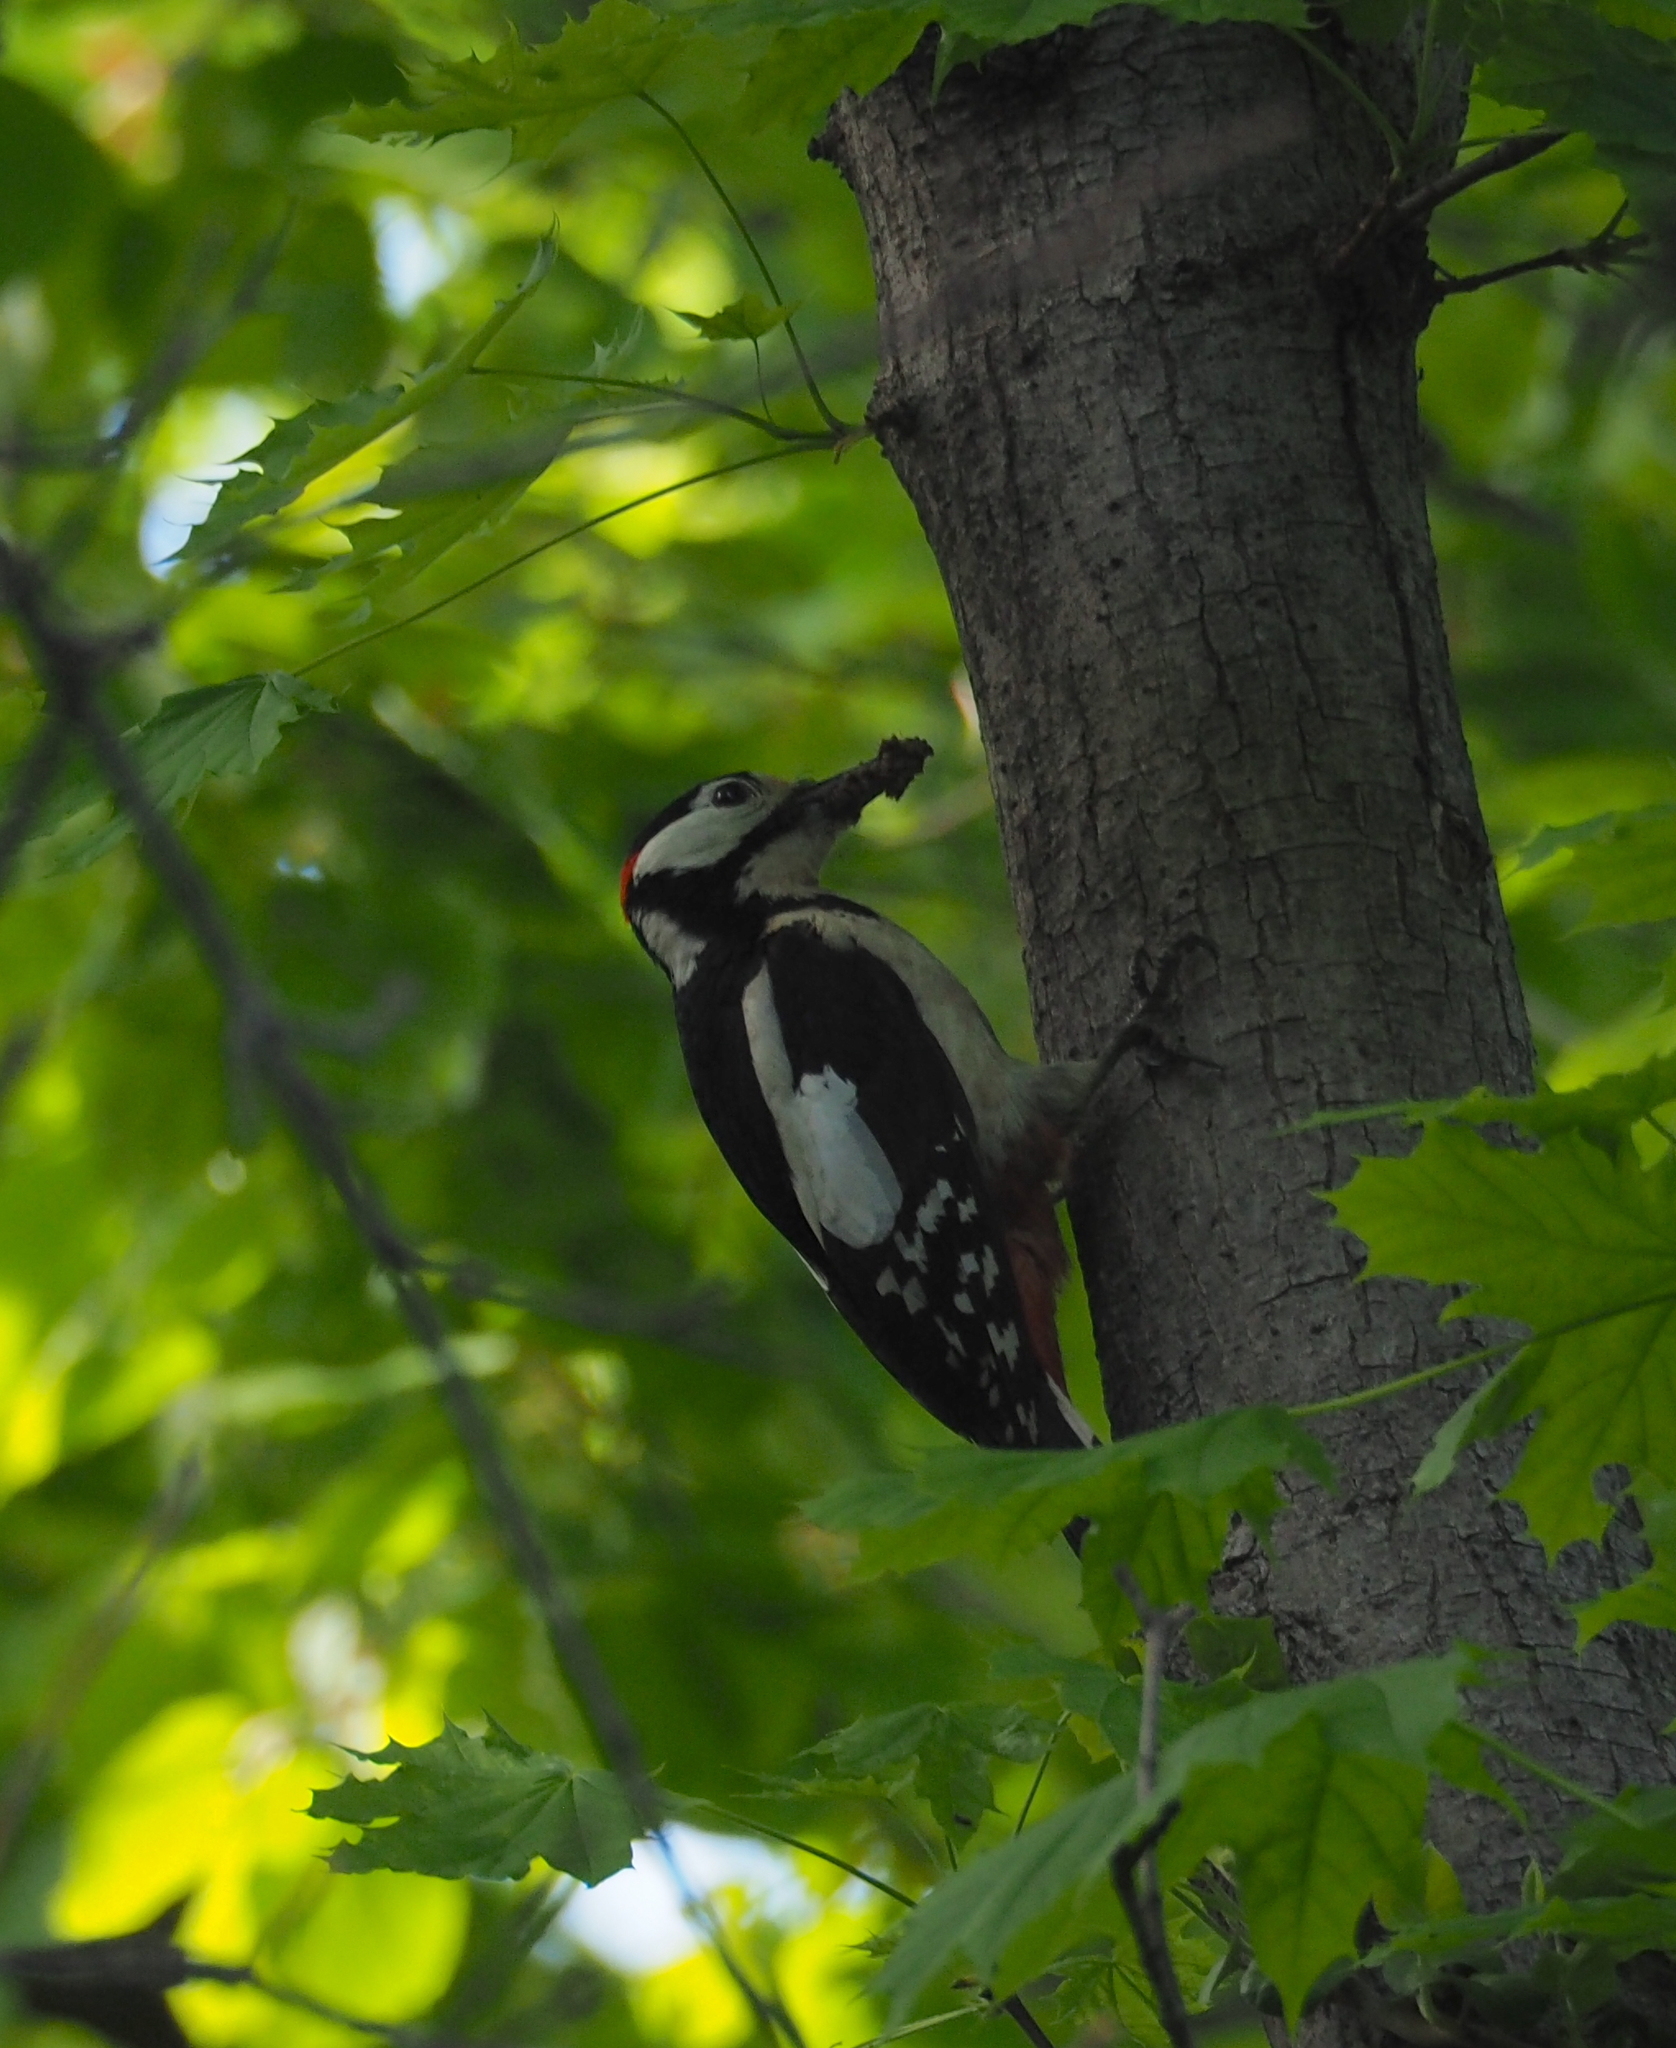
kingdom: Animalia
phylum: Chordata
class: Aves
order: Piciformes
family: Picidae
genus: Dendrocopos
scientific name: Dendrocopos major
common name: Great spotted woodpecker
